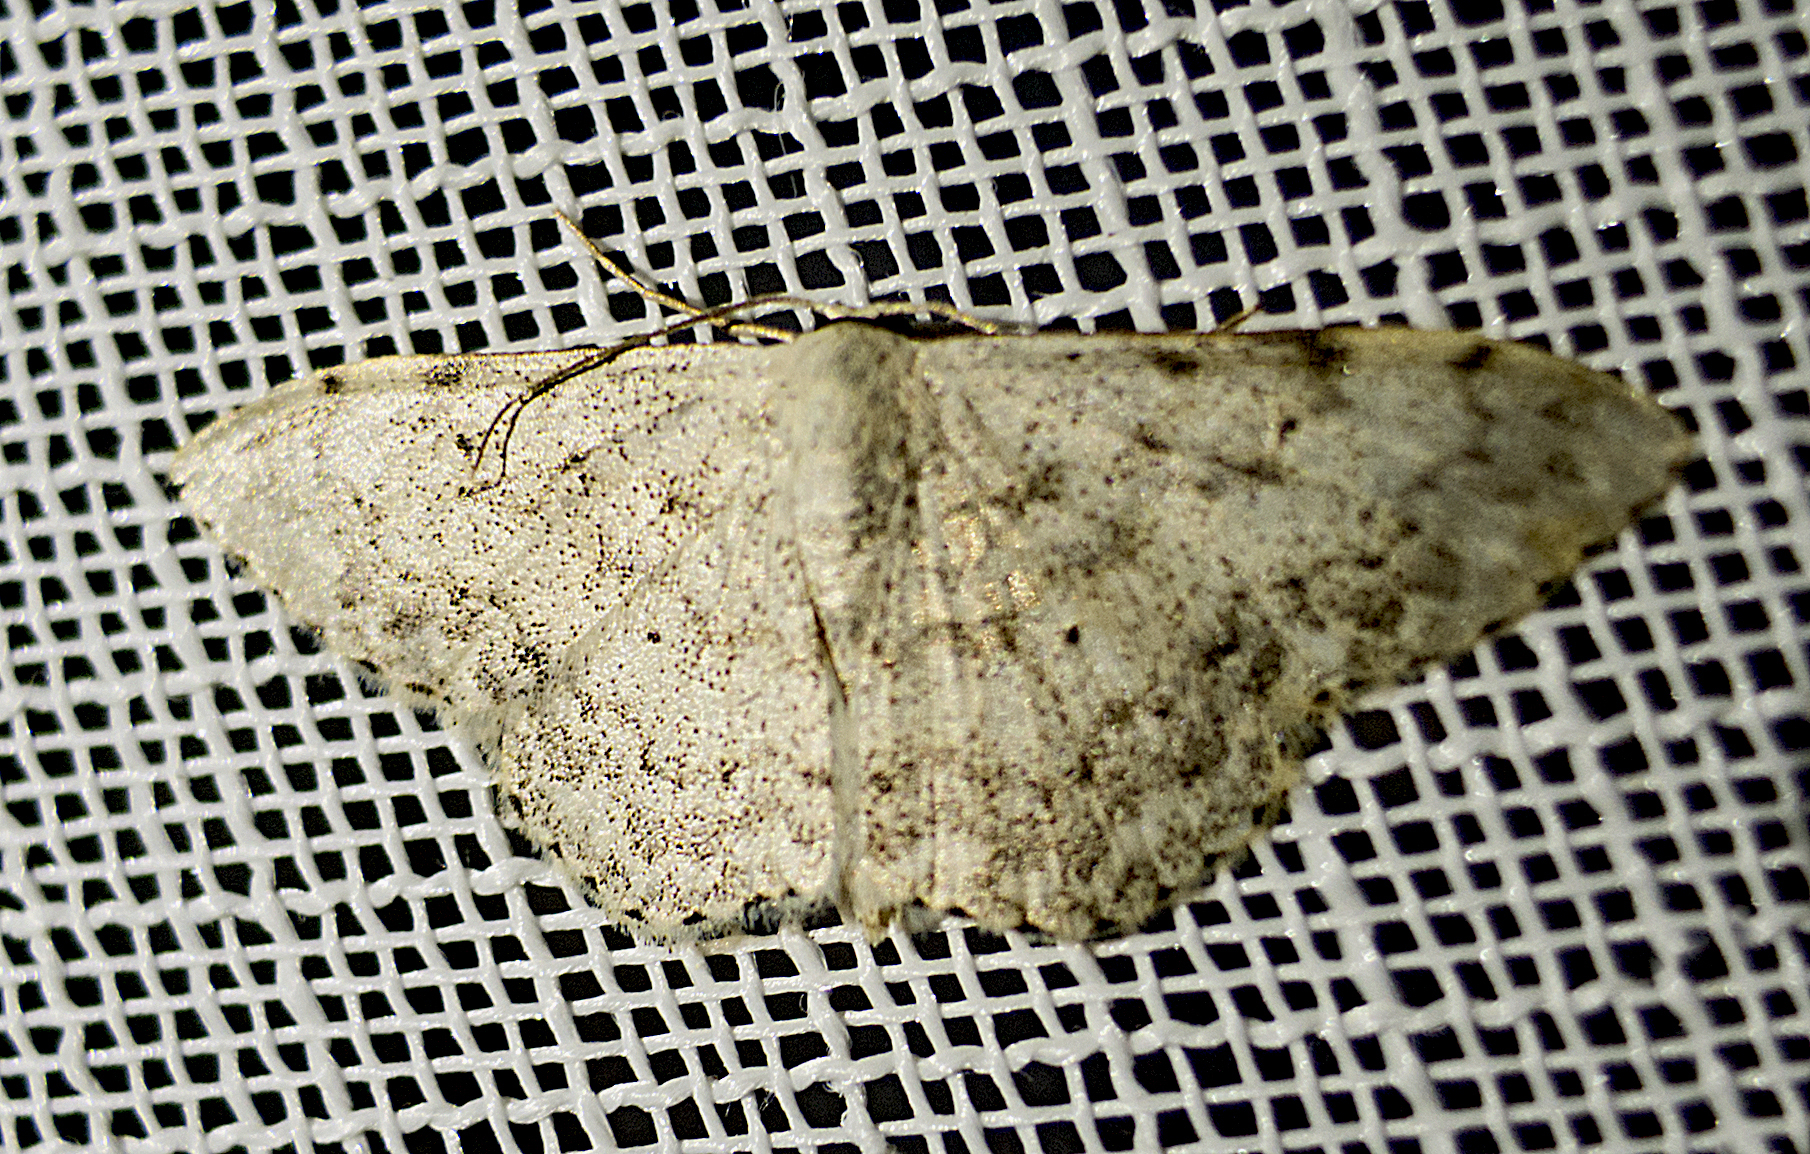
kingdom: Animalia
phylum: Arthropoda
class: Insecta
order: Lepidoptera
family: Geometridae
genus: Scopula
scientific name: Scopula marginepunctata
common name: Mullein wave
